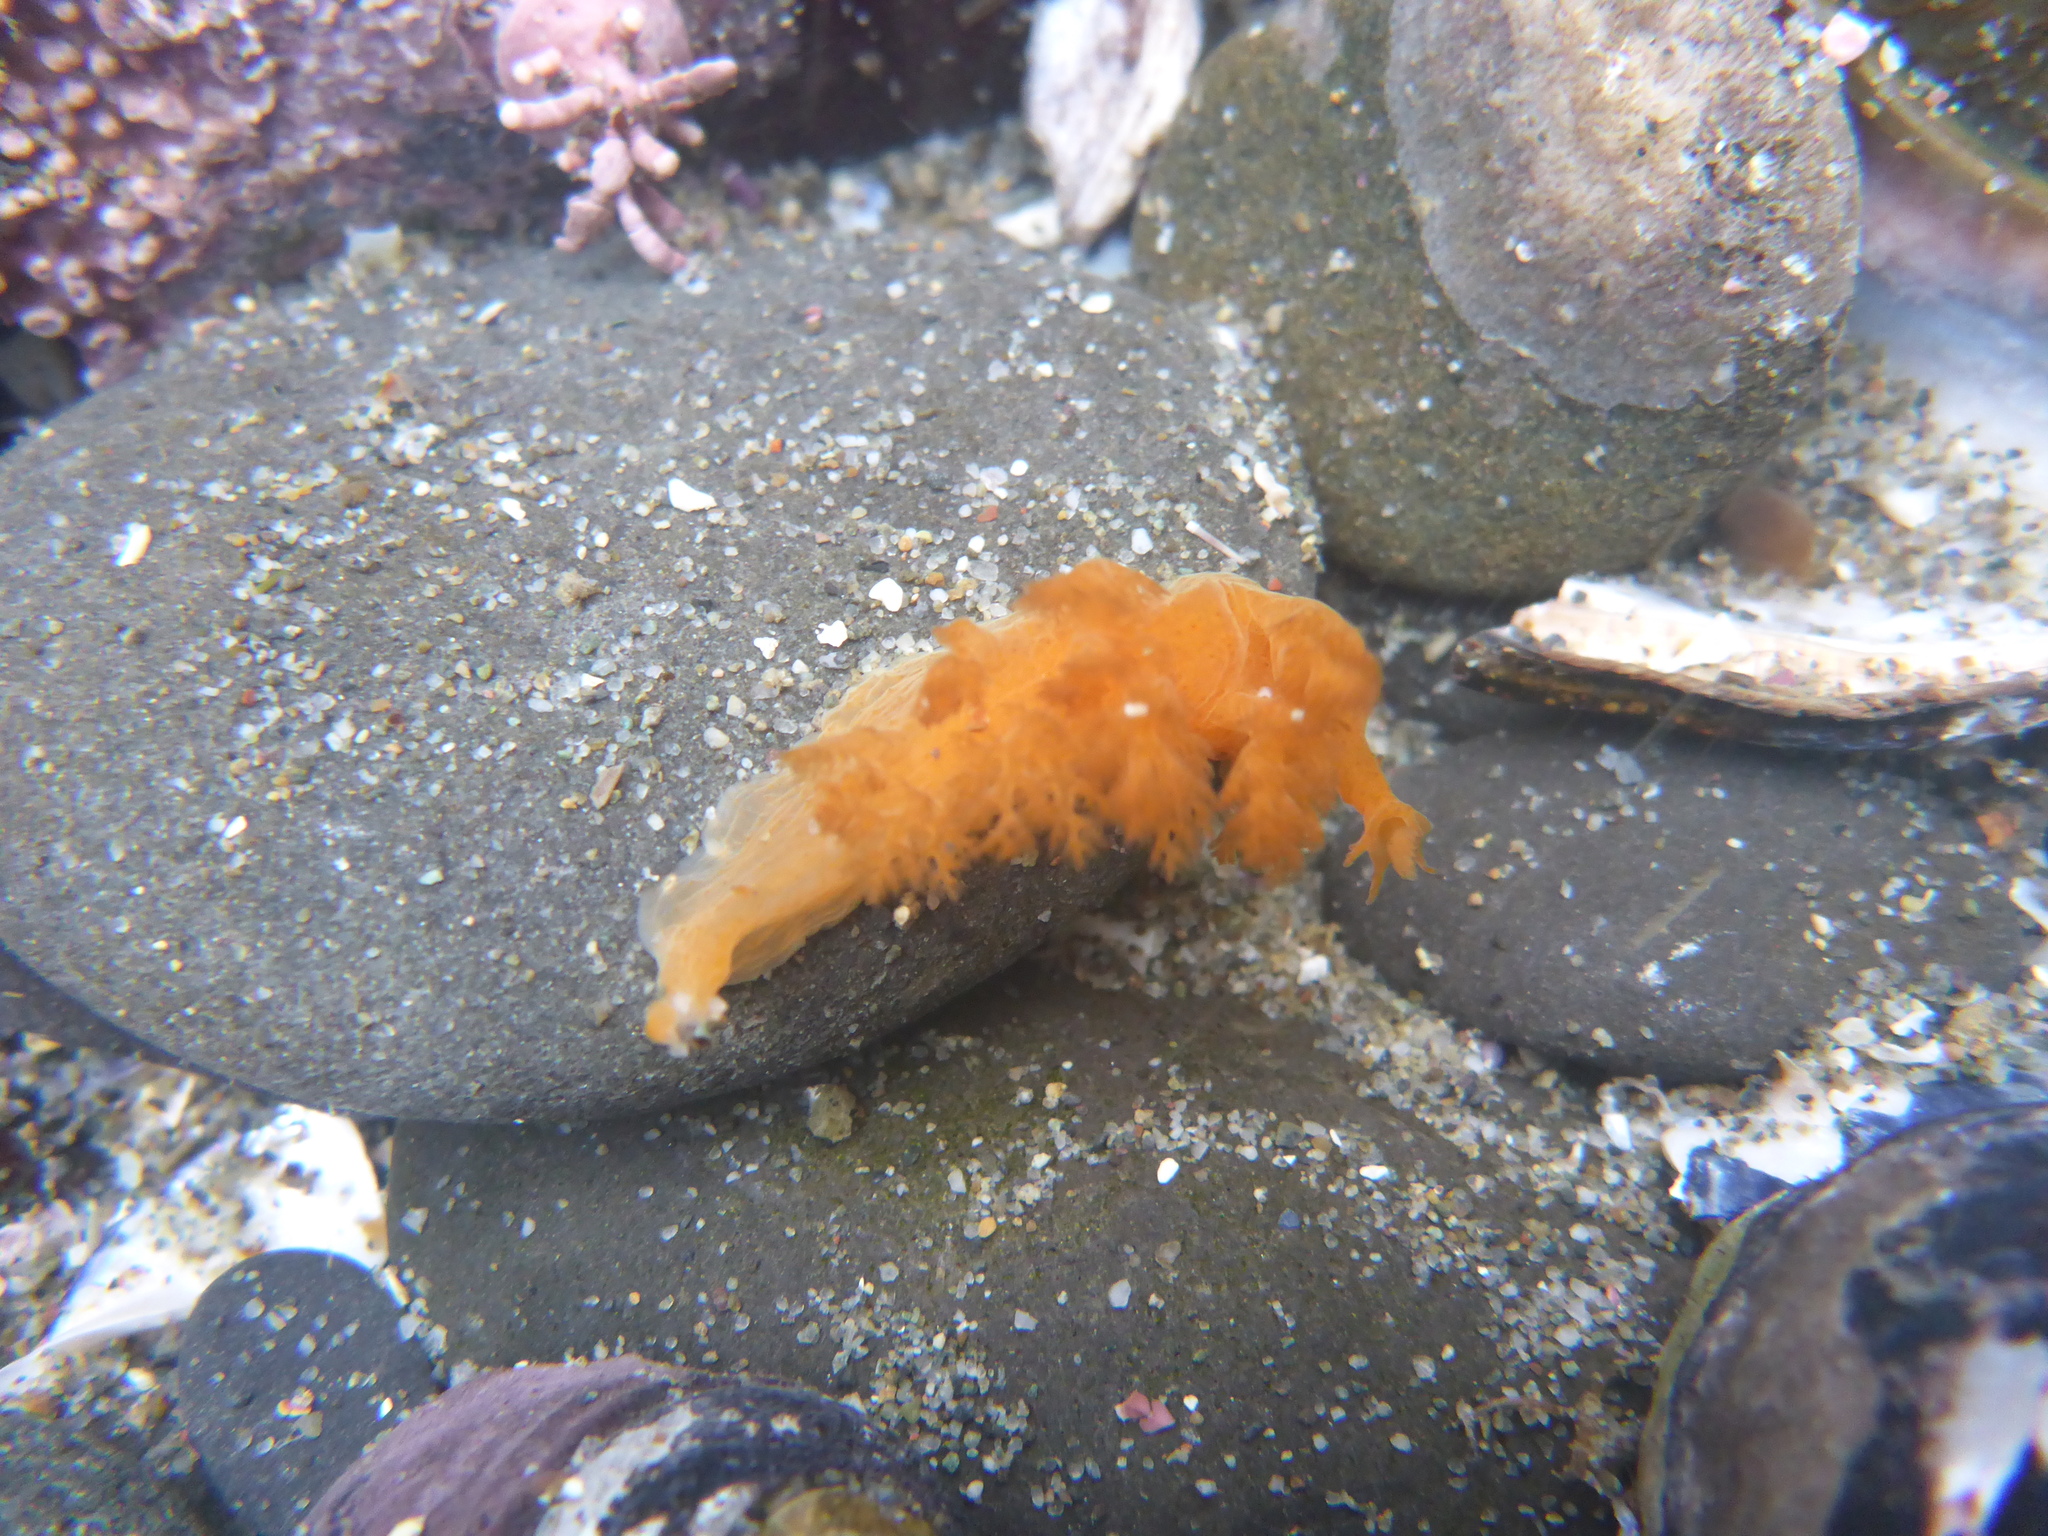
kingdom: Animalia
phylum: Mollusca
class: Gastropoda
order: Nudibranchia
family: Dendronotidae
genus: Dendronotus
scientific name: Dendronotus subramosus
